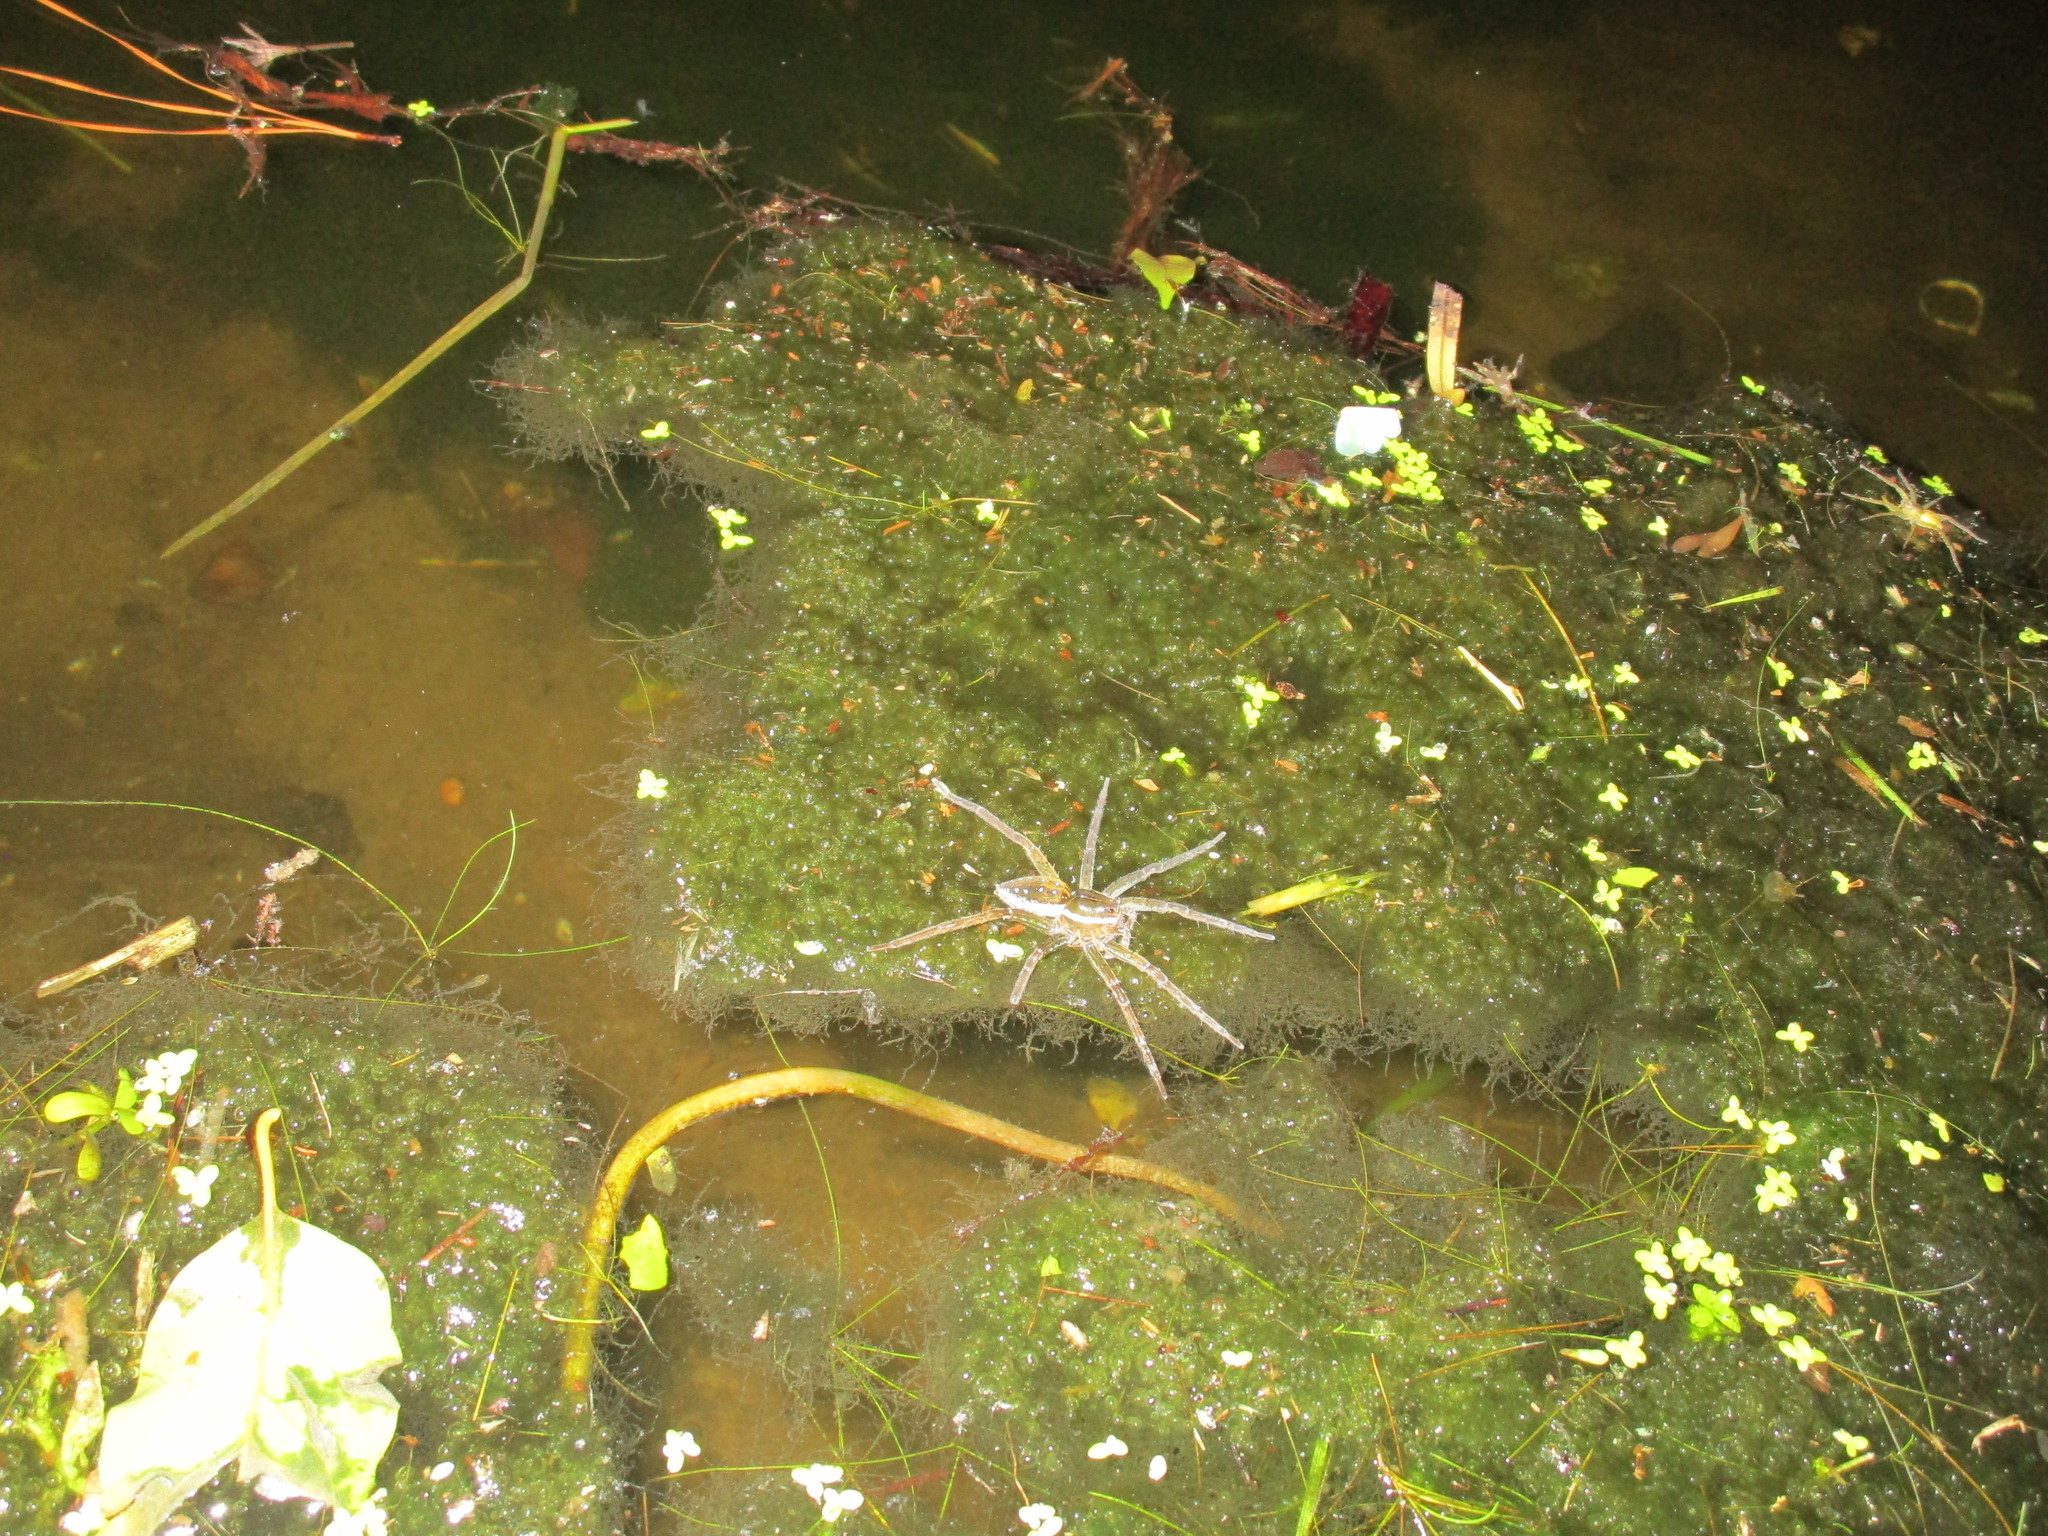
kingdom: Animalia
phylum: Arthropoda
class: Arachnida
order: Araneae
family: Pisauridae
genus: Dolomedes
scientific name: Dolomedes triton
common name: Six-spotted fishing spider
